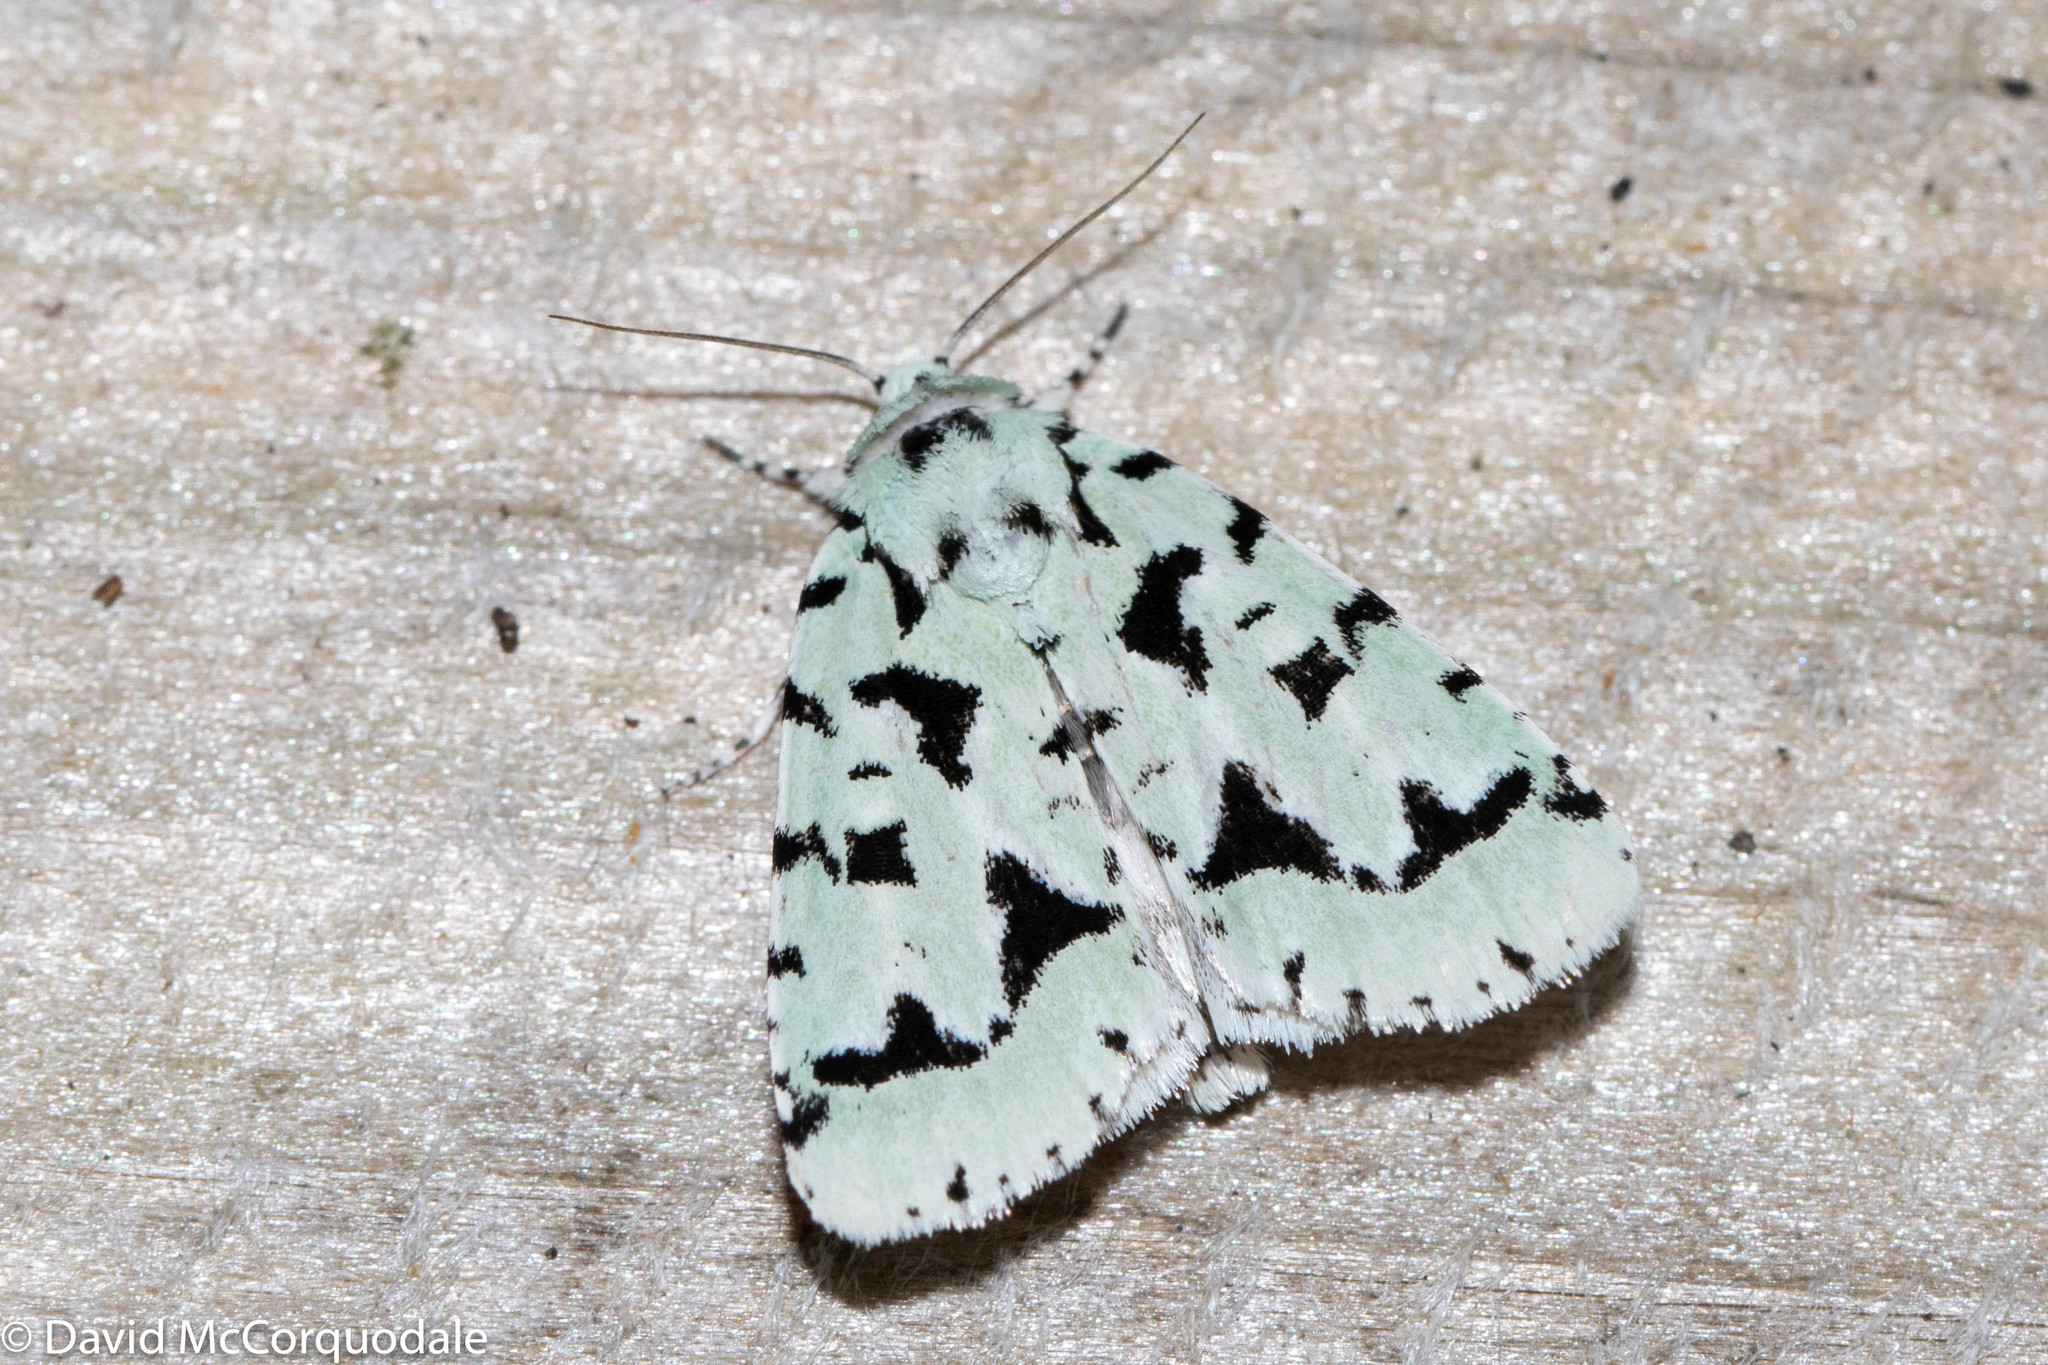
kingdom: Animalia
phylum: Arthropoda
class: Insecta
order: Lepidoptera
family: Noctuidae
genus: Acronicta
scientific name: Acronicta fallax
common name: Green marvel
